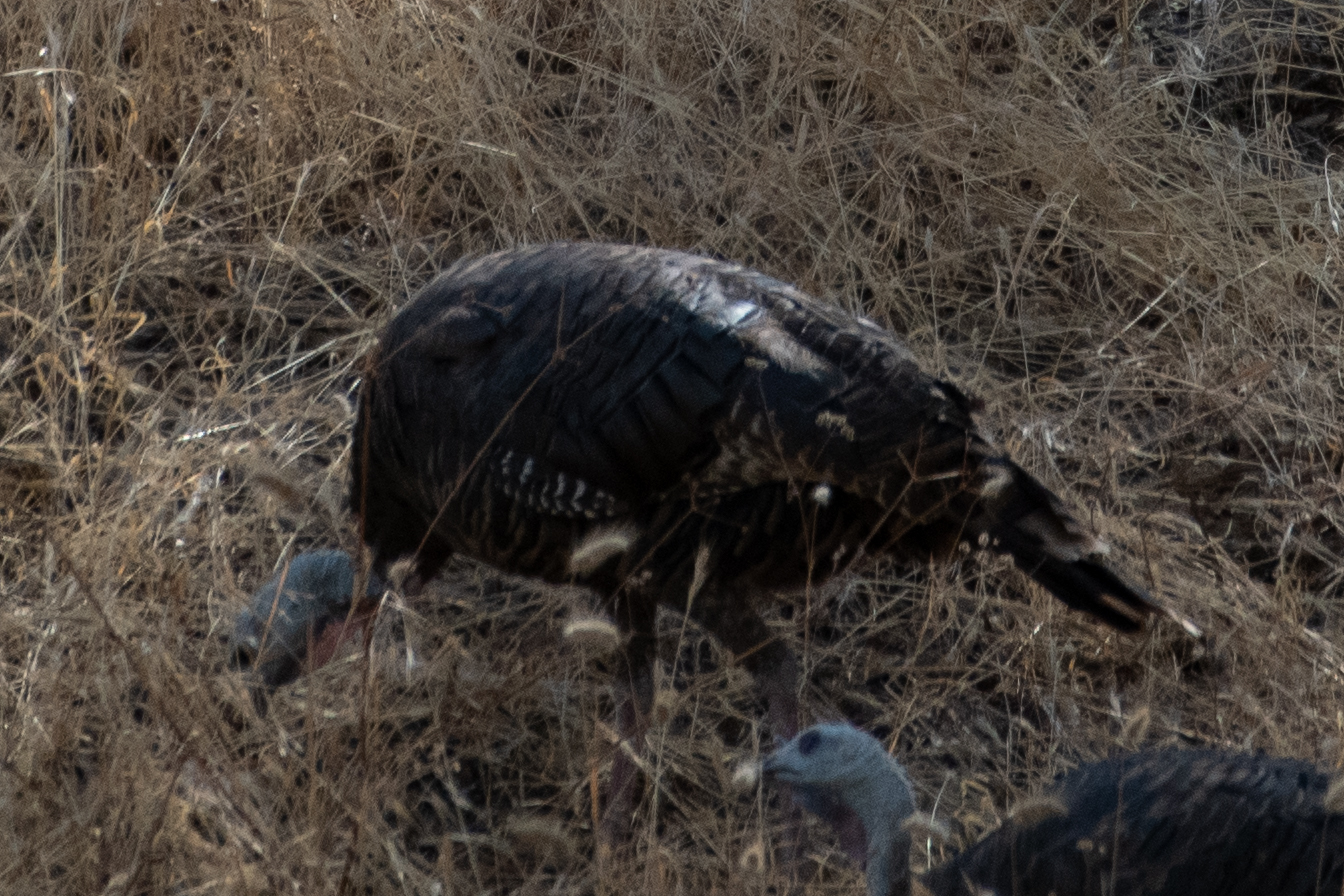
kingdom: Animalia
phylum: Chordata
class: Aves
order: Galliformes
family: Phasianidae
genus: Meleagris
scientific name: Meleagris gallopavo
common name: Wild turkey
